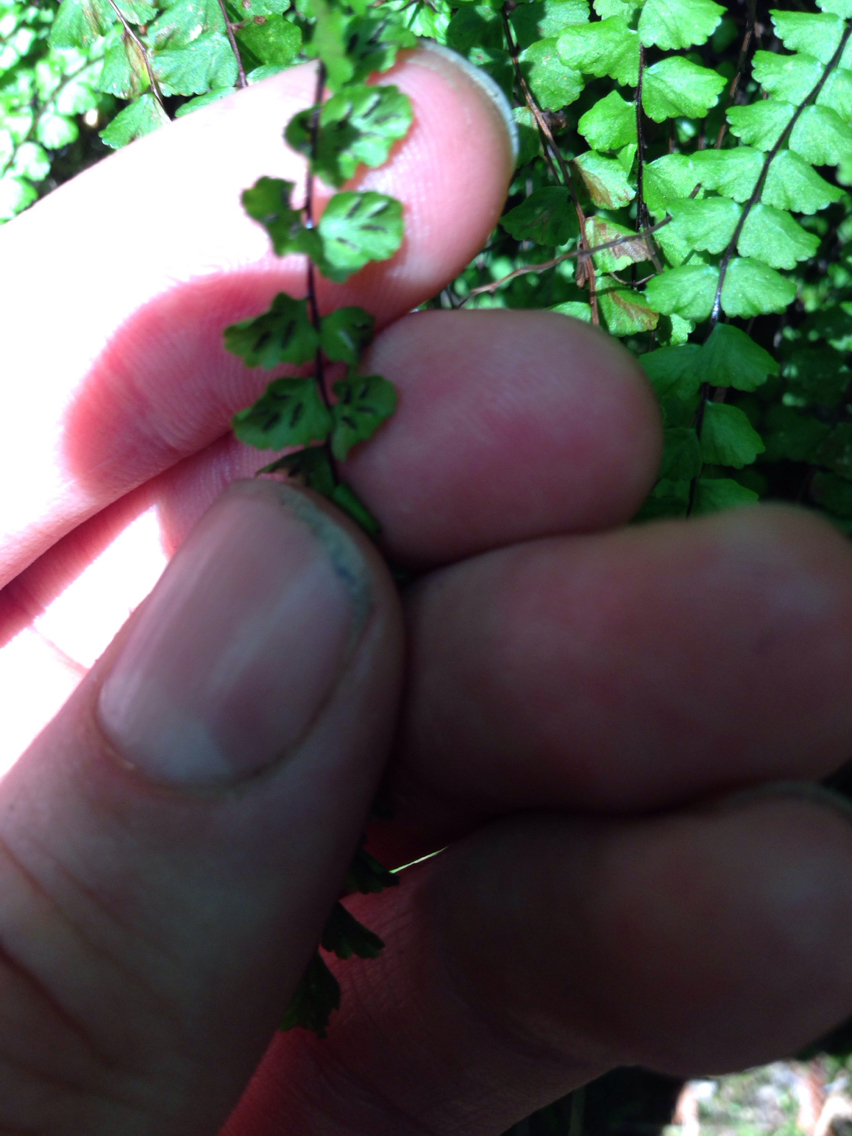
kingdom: Plantae
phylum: Tracheophyta
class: Polypodiopsida
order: Polypodiales
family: Aspleniaceae
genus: Asplenium
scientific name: Asplenium trichomanes
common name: Maidenhair spleenwort
